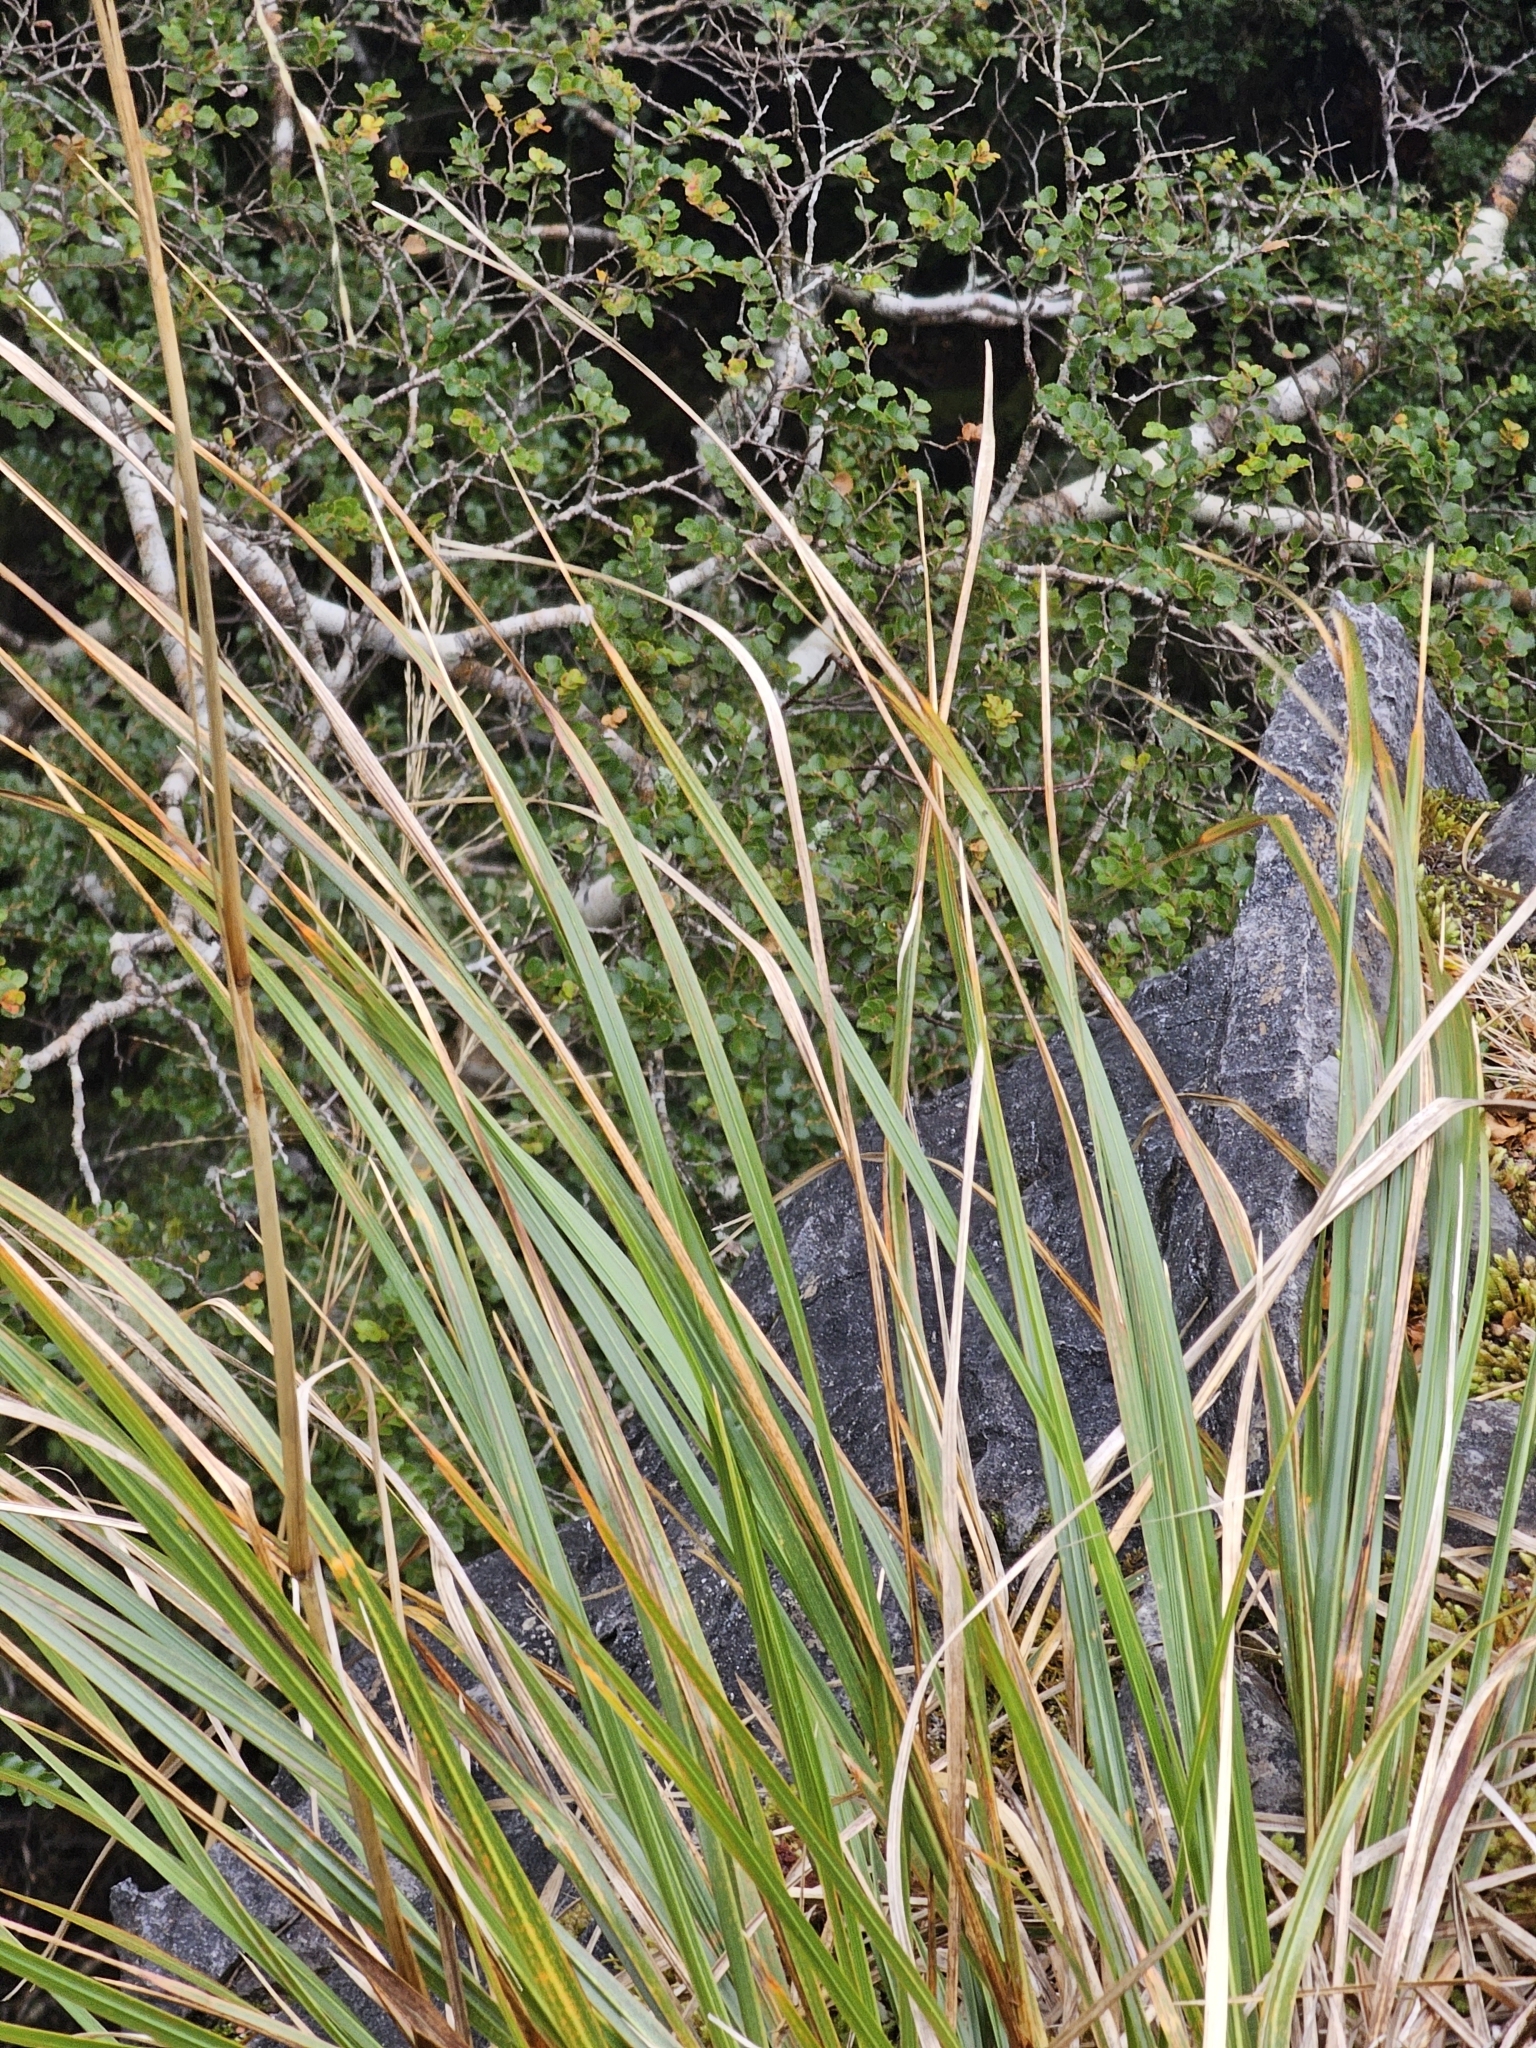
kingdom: Plantae
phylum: Tracheophyta
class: Liliopsida
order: Poales
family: Poaceae
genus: Chionochloa
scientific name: Chionochloa conspicua
